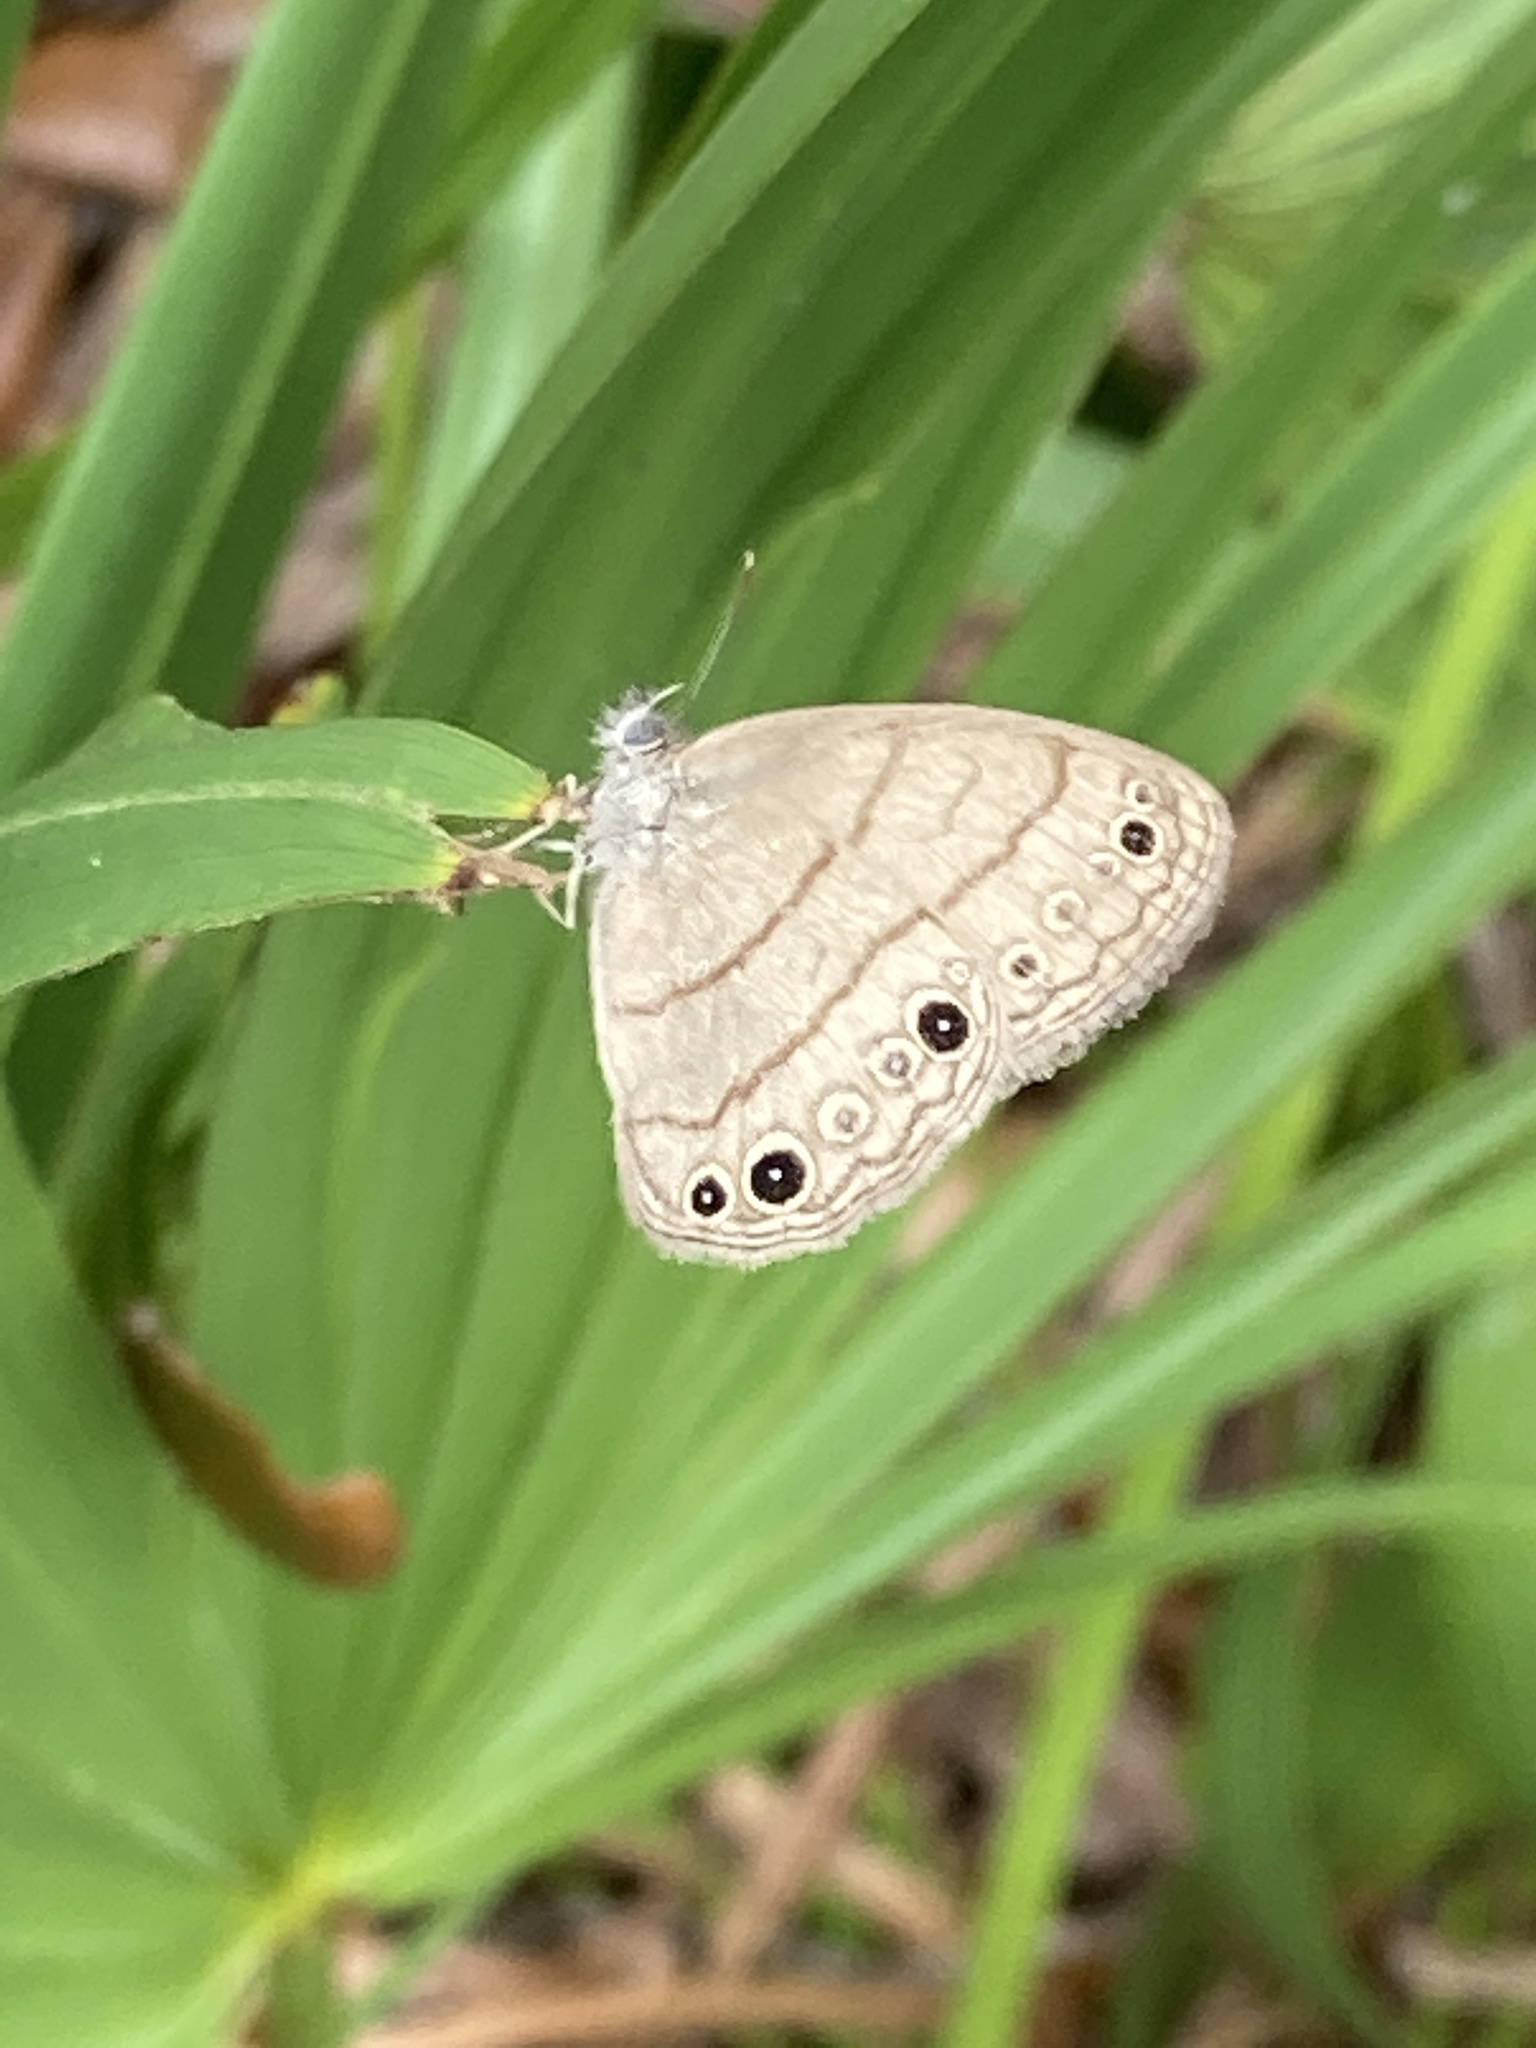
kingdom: Animalia
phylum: Arthropoda
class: Insecta
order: Lepidoptera
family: Nymphalidae
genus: Hermeuptychia
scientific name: Hermeuptychia hermes
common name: Hermes satyr
